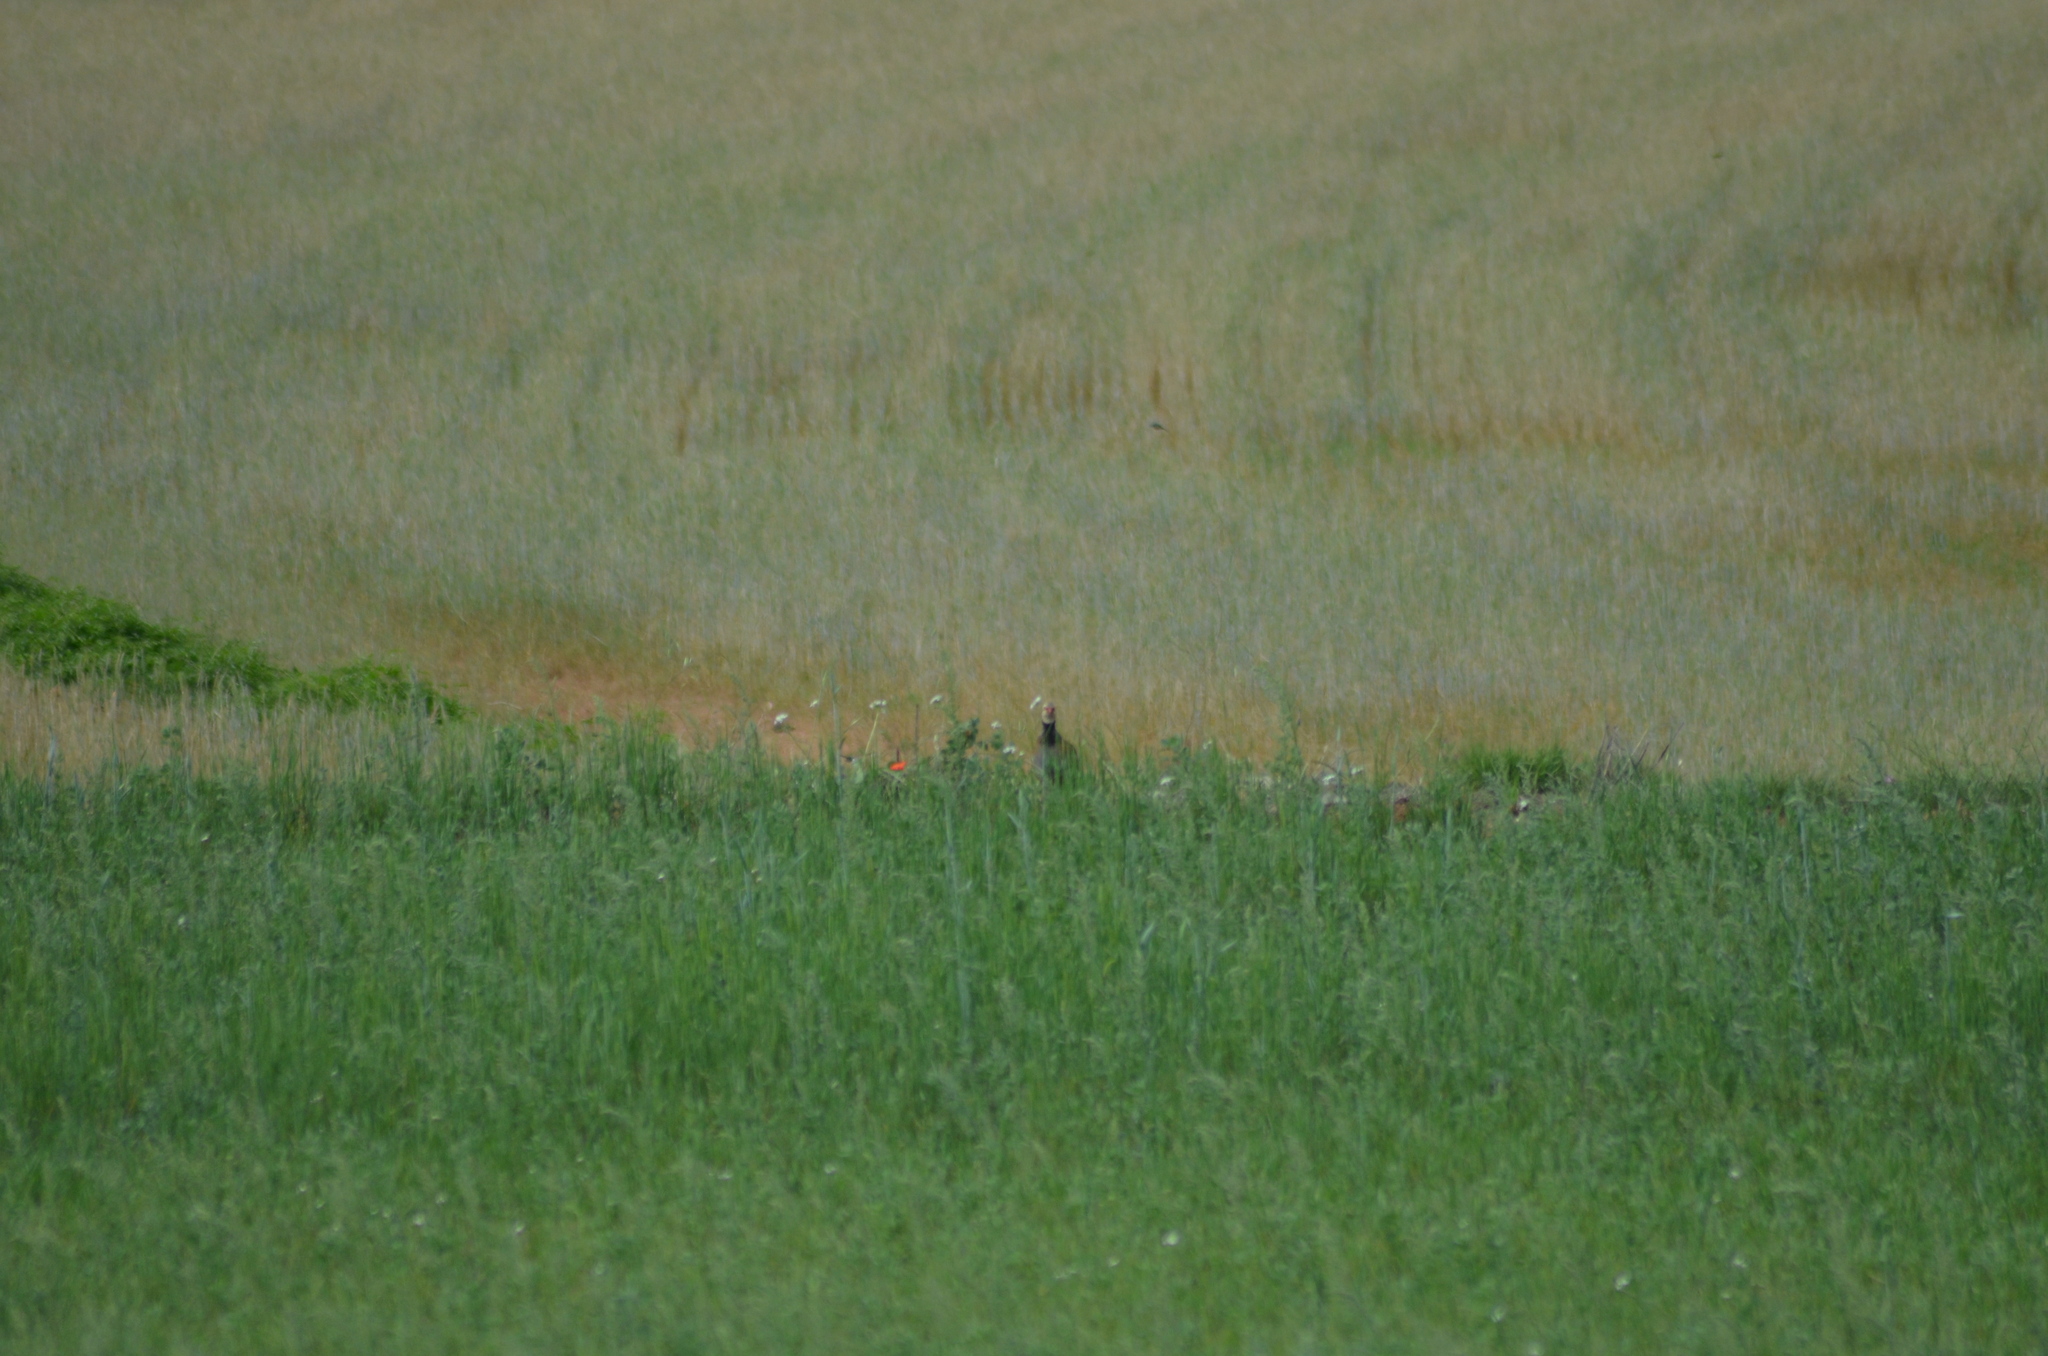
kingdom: Animalia
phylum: Chordata
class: Aves
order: Galliformes
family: Phasianidae
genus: Alectoris
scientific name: Alectoris rufa
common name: Red-legged partridge
